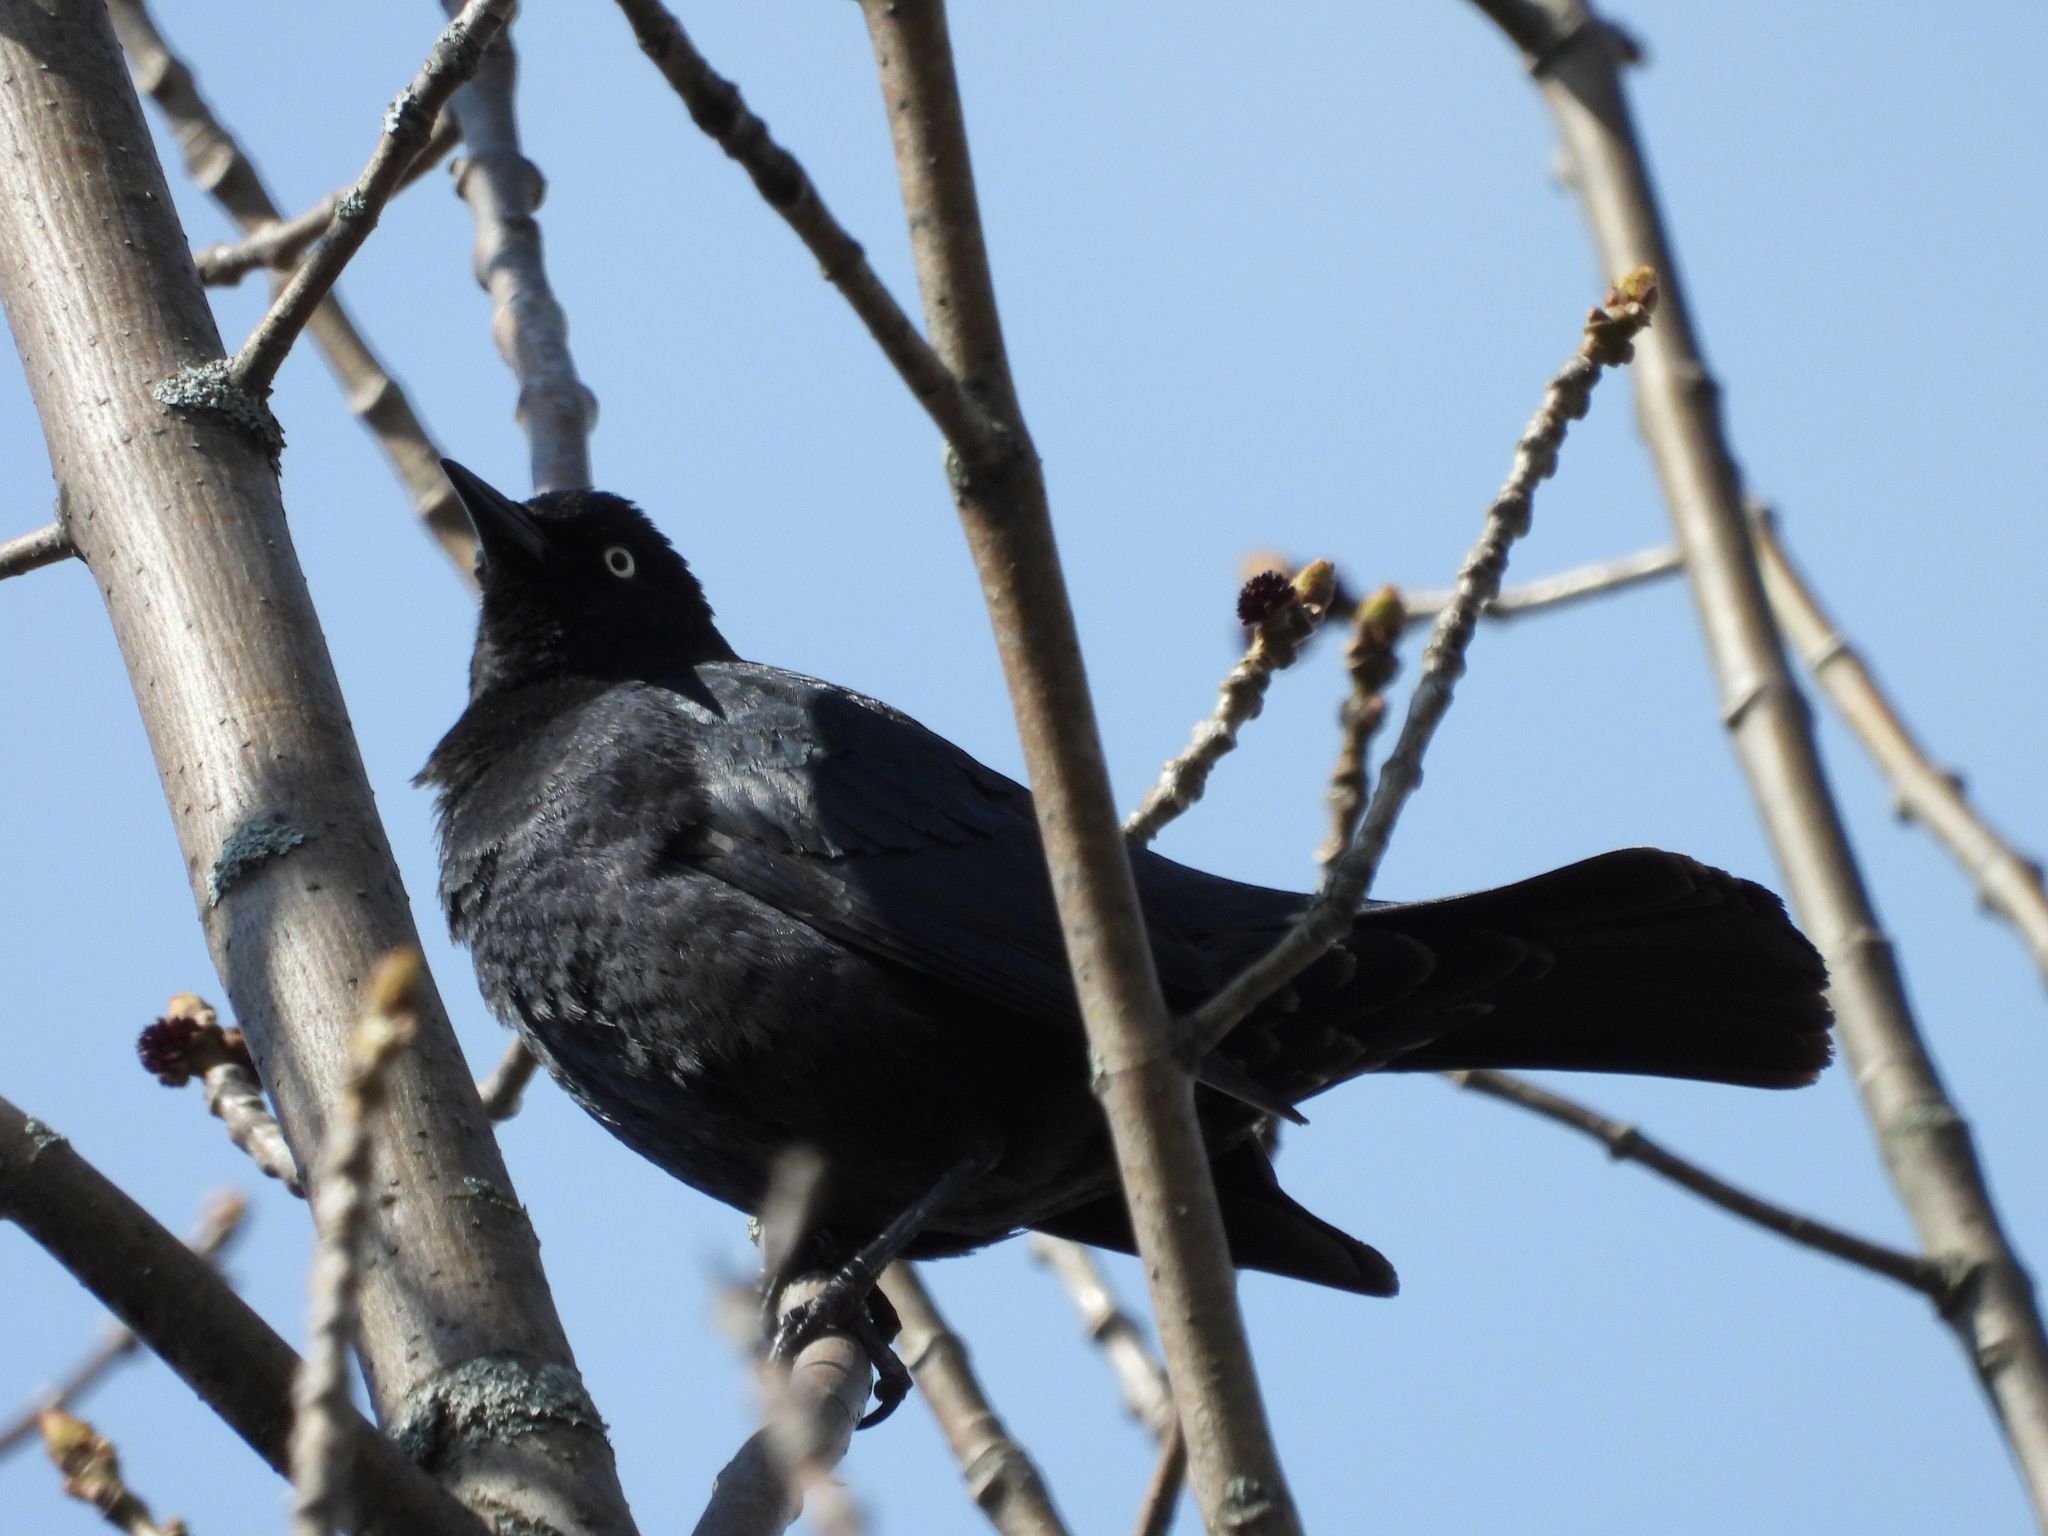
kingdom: Animalia
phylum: Chordata
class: Aves
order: Passeriformes
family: Icteridae
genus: Euphagus
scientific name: Euphagus carolinus
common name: Rusty blackbird
